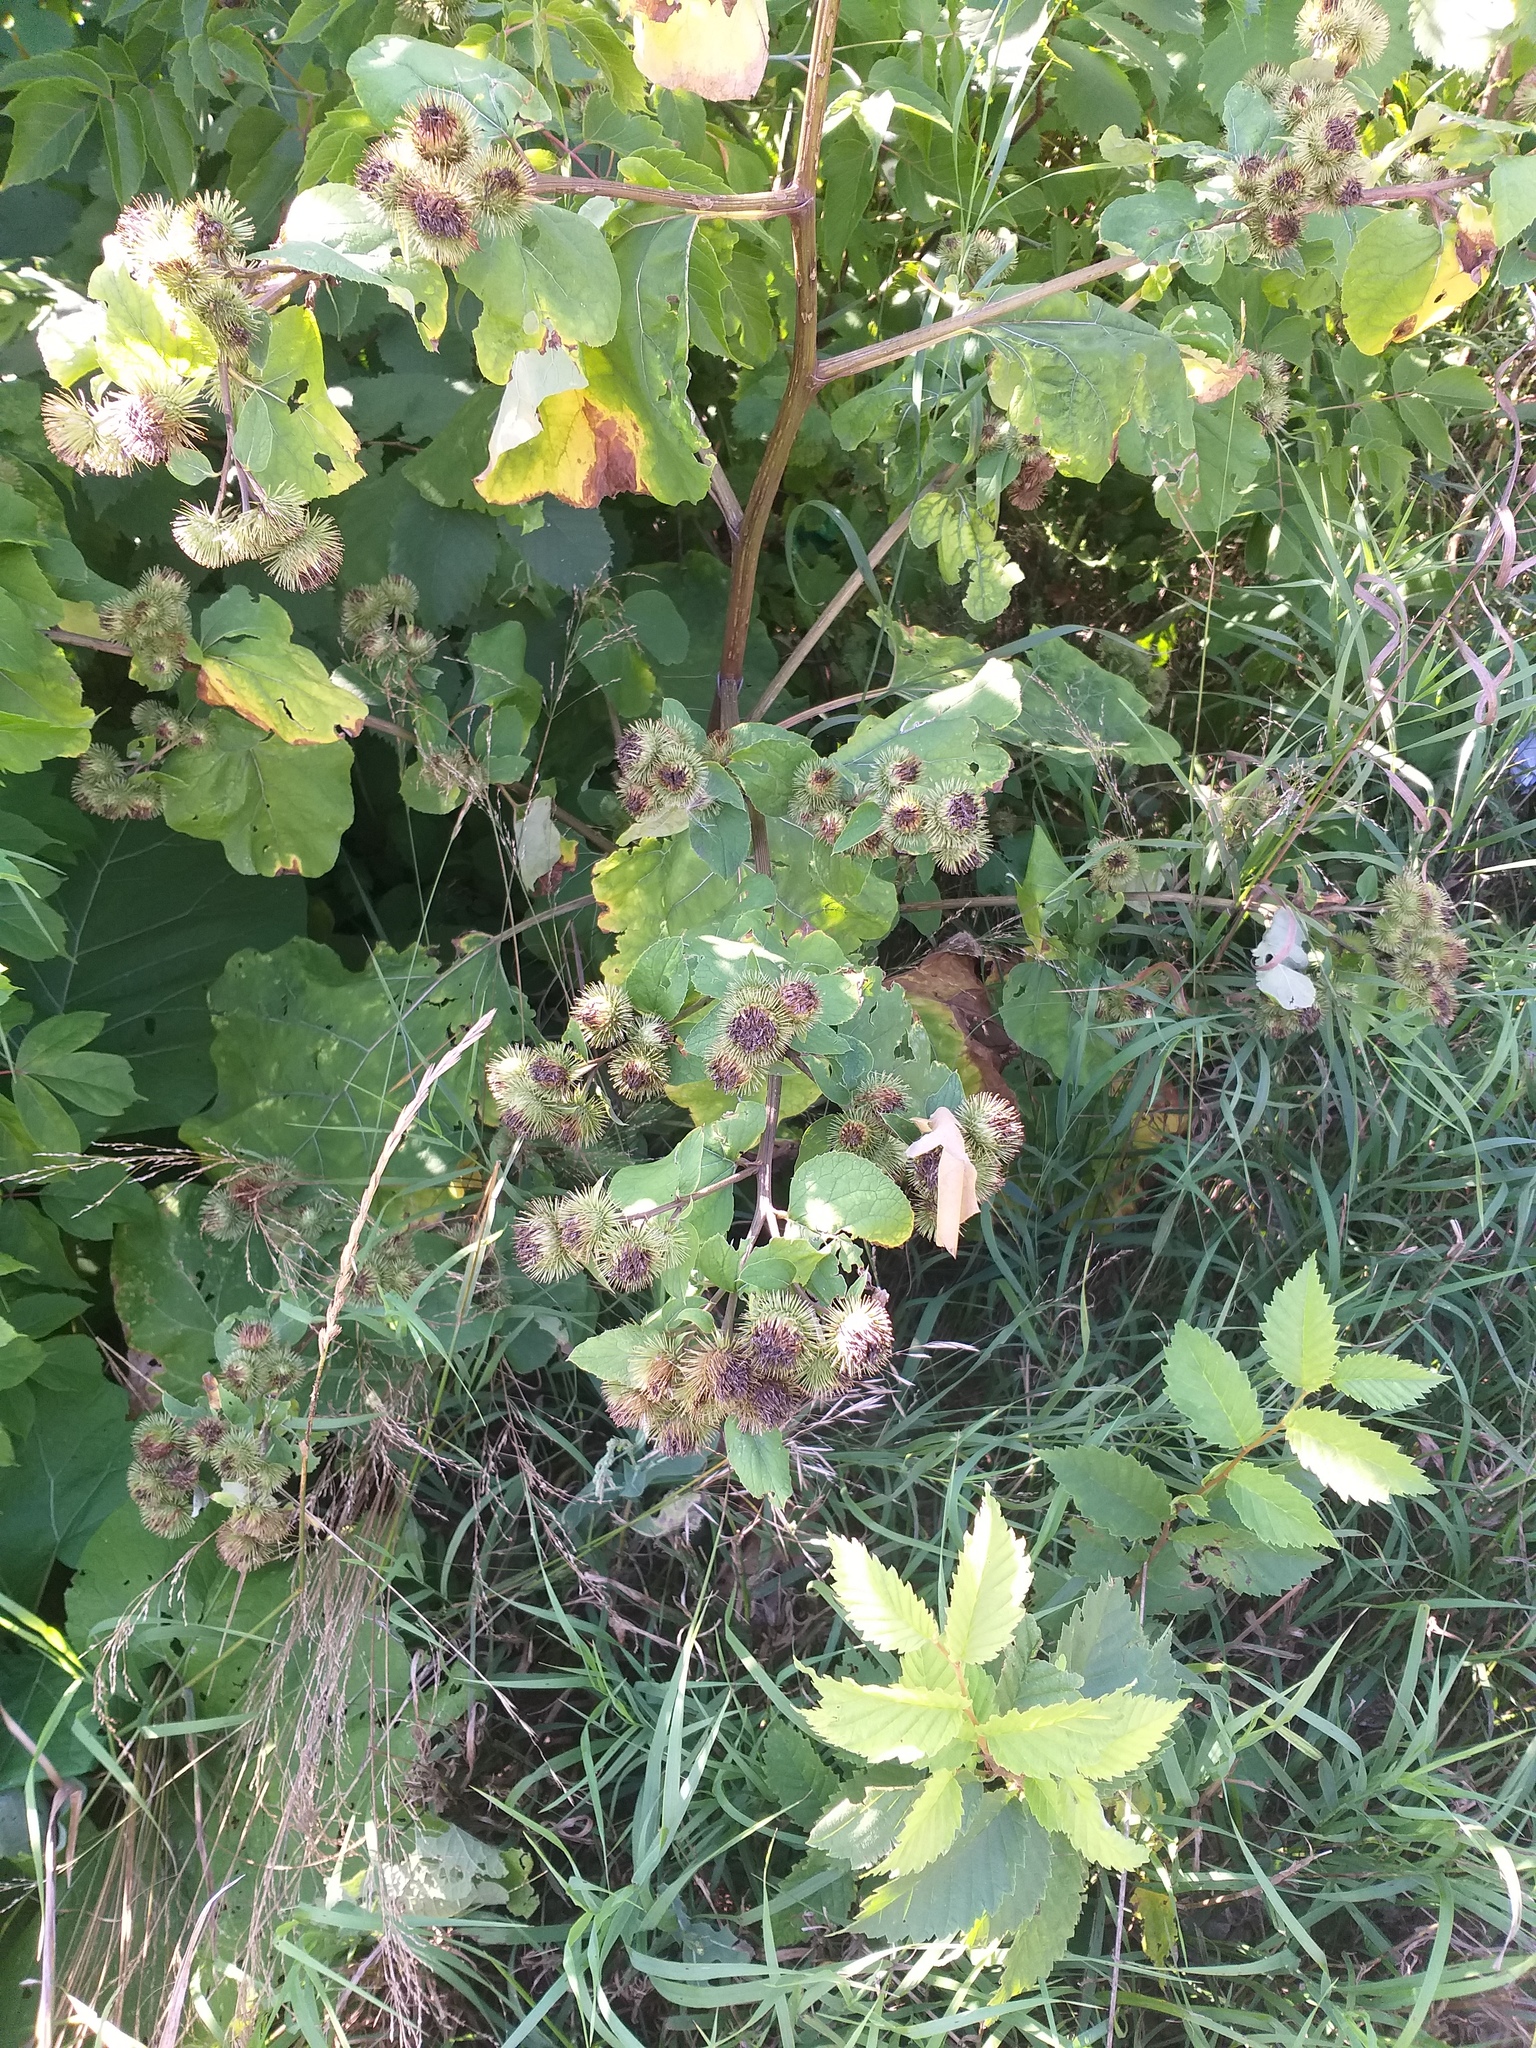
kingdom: Plantae
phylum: Tracheophyta
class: Magnoliopsida
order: Asterales
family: Asteraceae
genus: Arctium
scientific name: Arctium lappa
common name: Greater burdock
